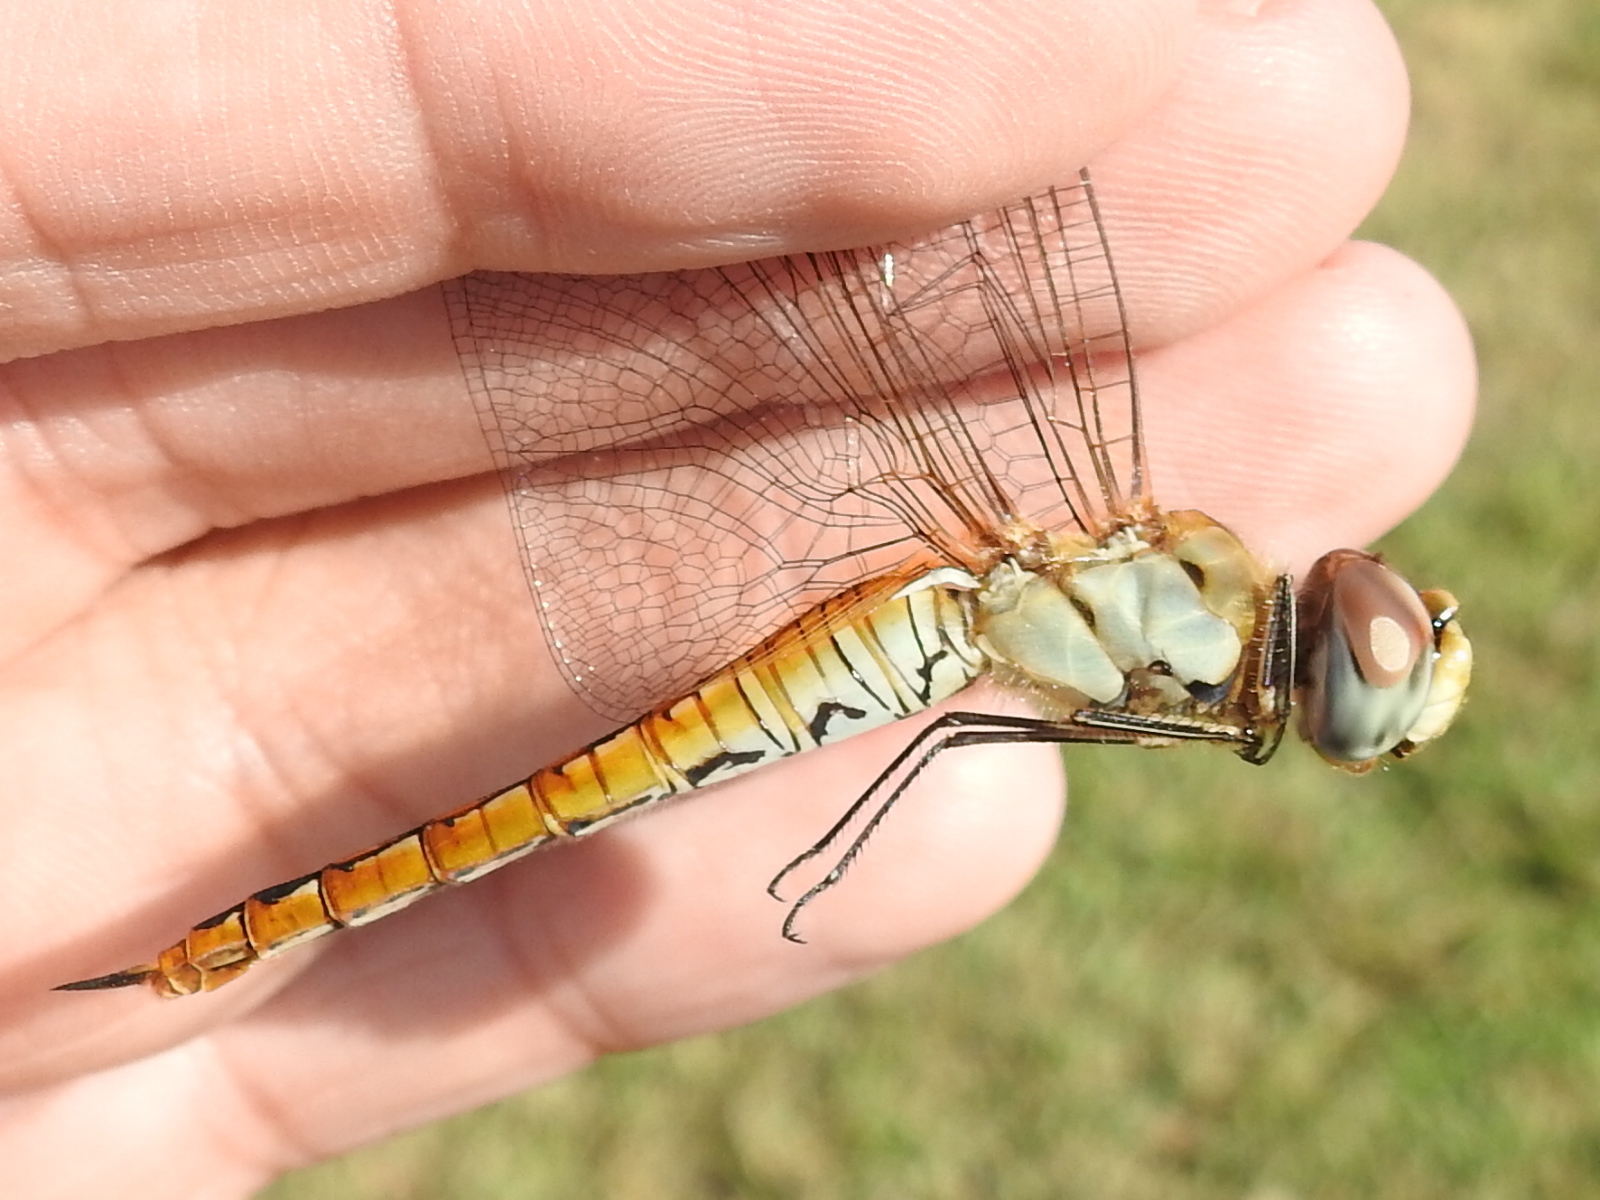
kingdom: Animalia
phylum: Arthropoda
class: Insecta
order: Odonata
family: Libellulidae
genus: Pantala
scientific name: Pantala flavescens
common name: Wandering glider
